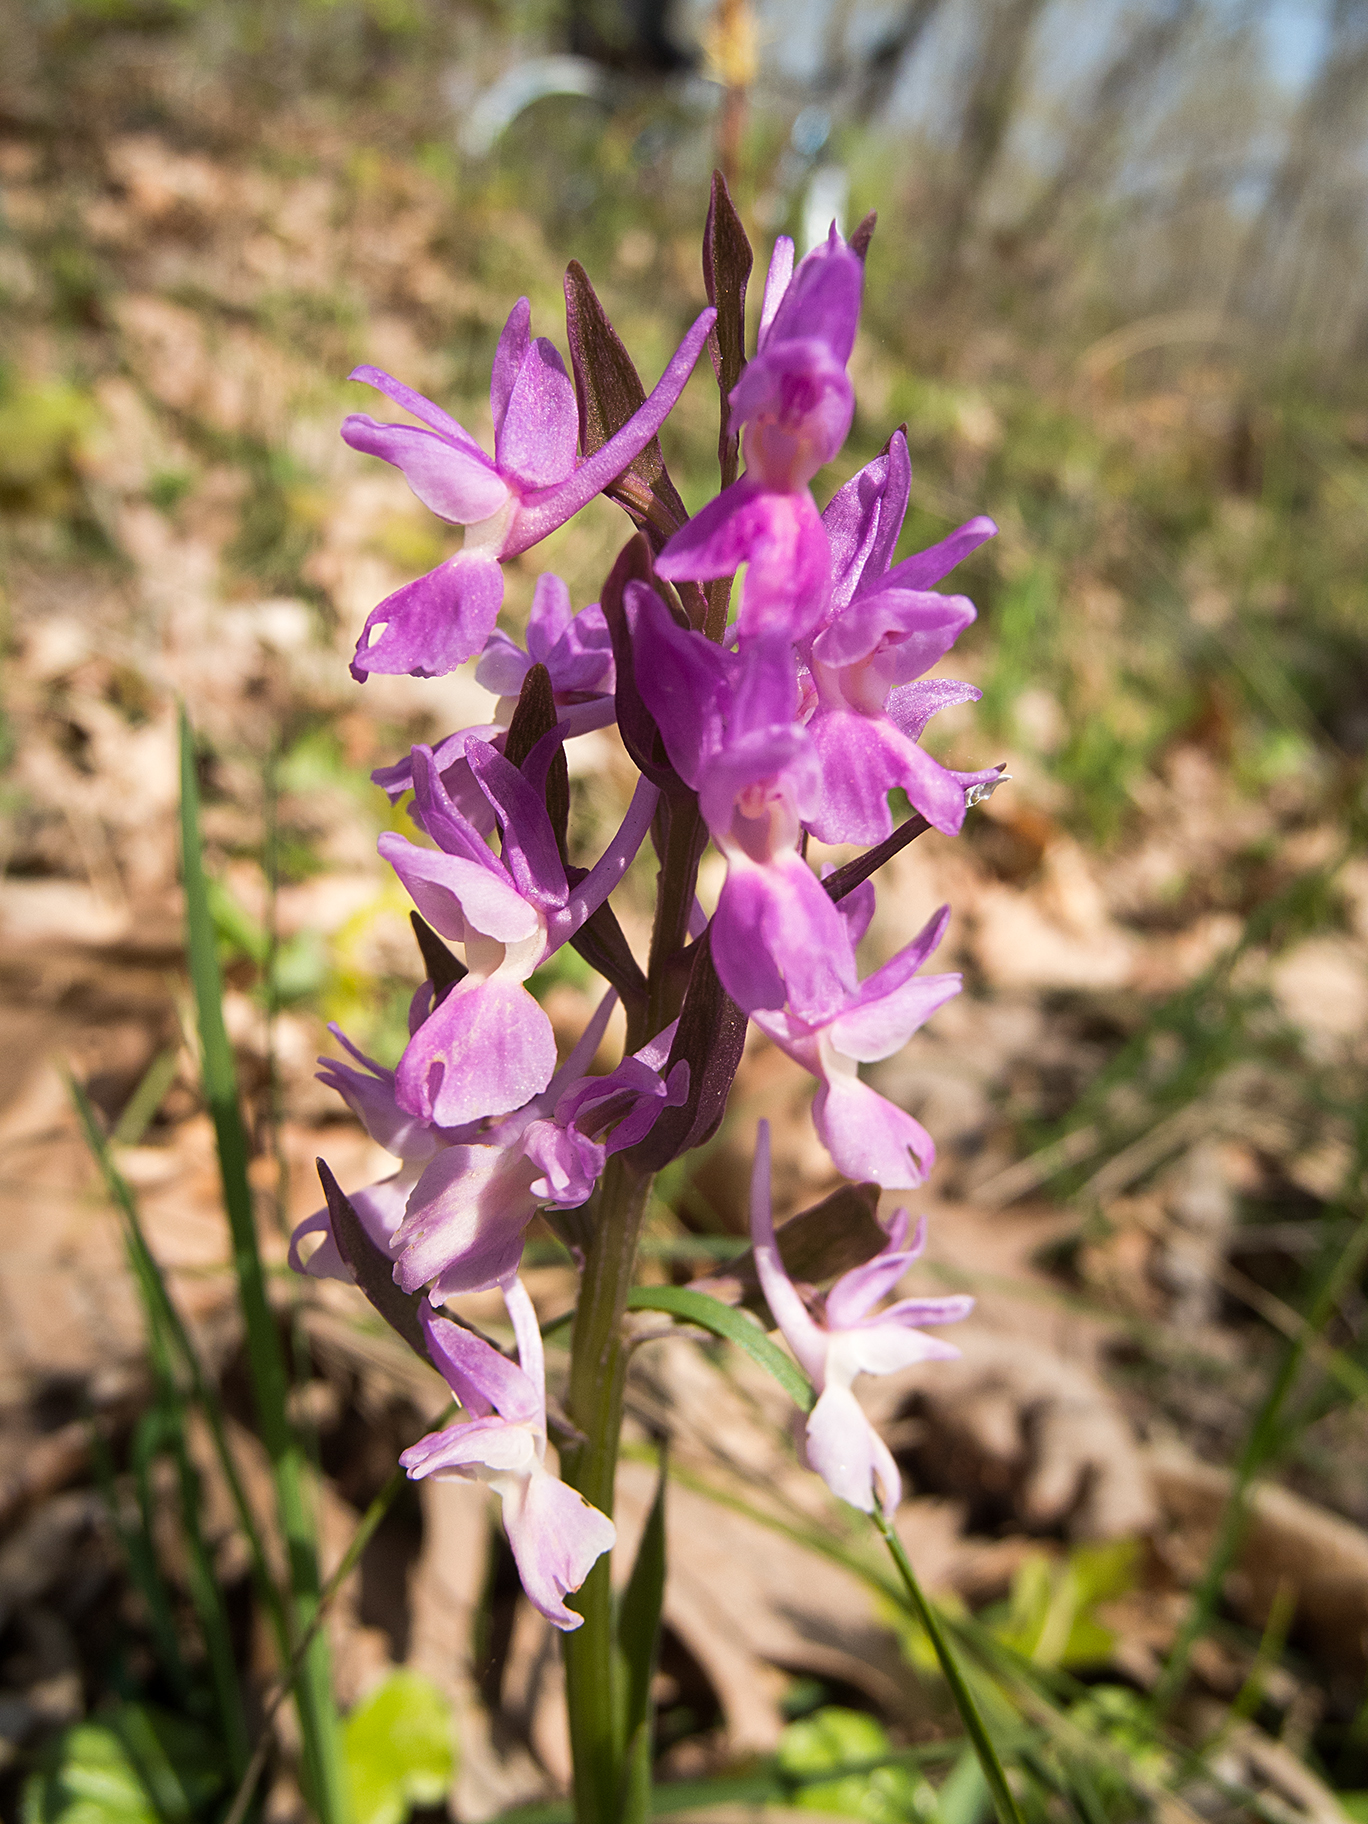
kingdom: Plantae
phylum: Tracheophyta
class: Liliopsida
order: Asparagales
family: Orchidaceae
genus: Dactylorhiza
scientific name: Dactylorhiza romana
